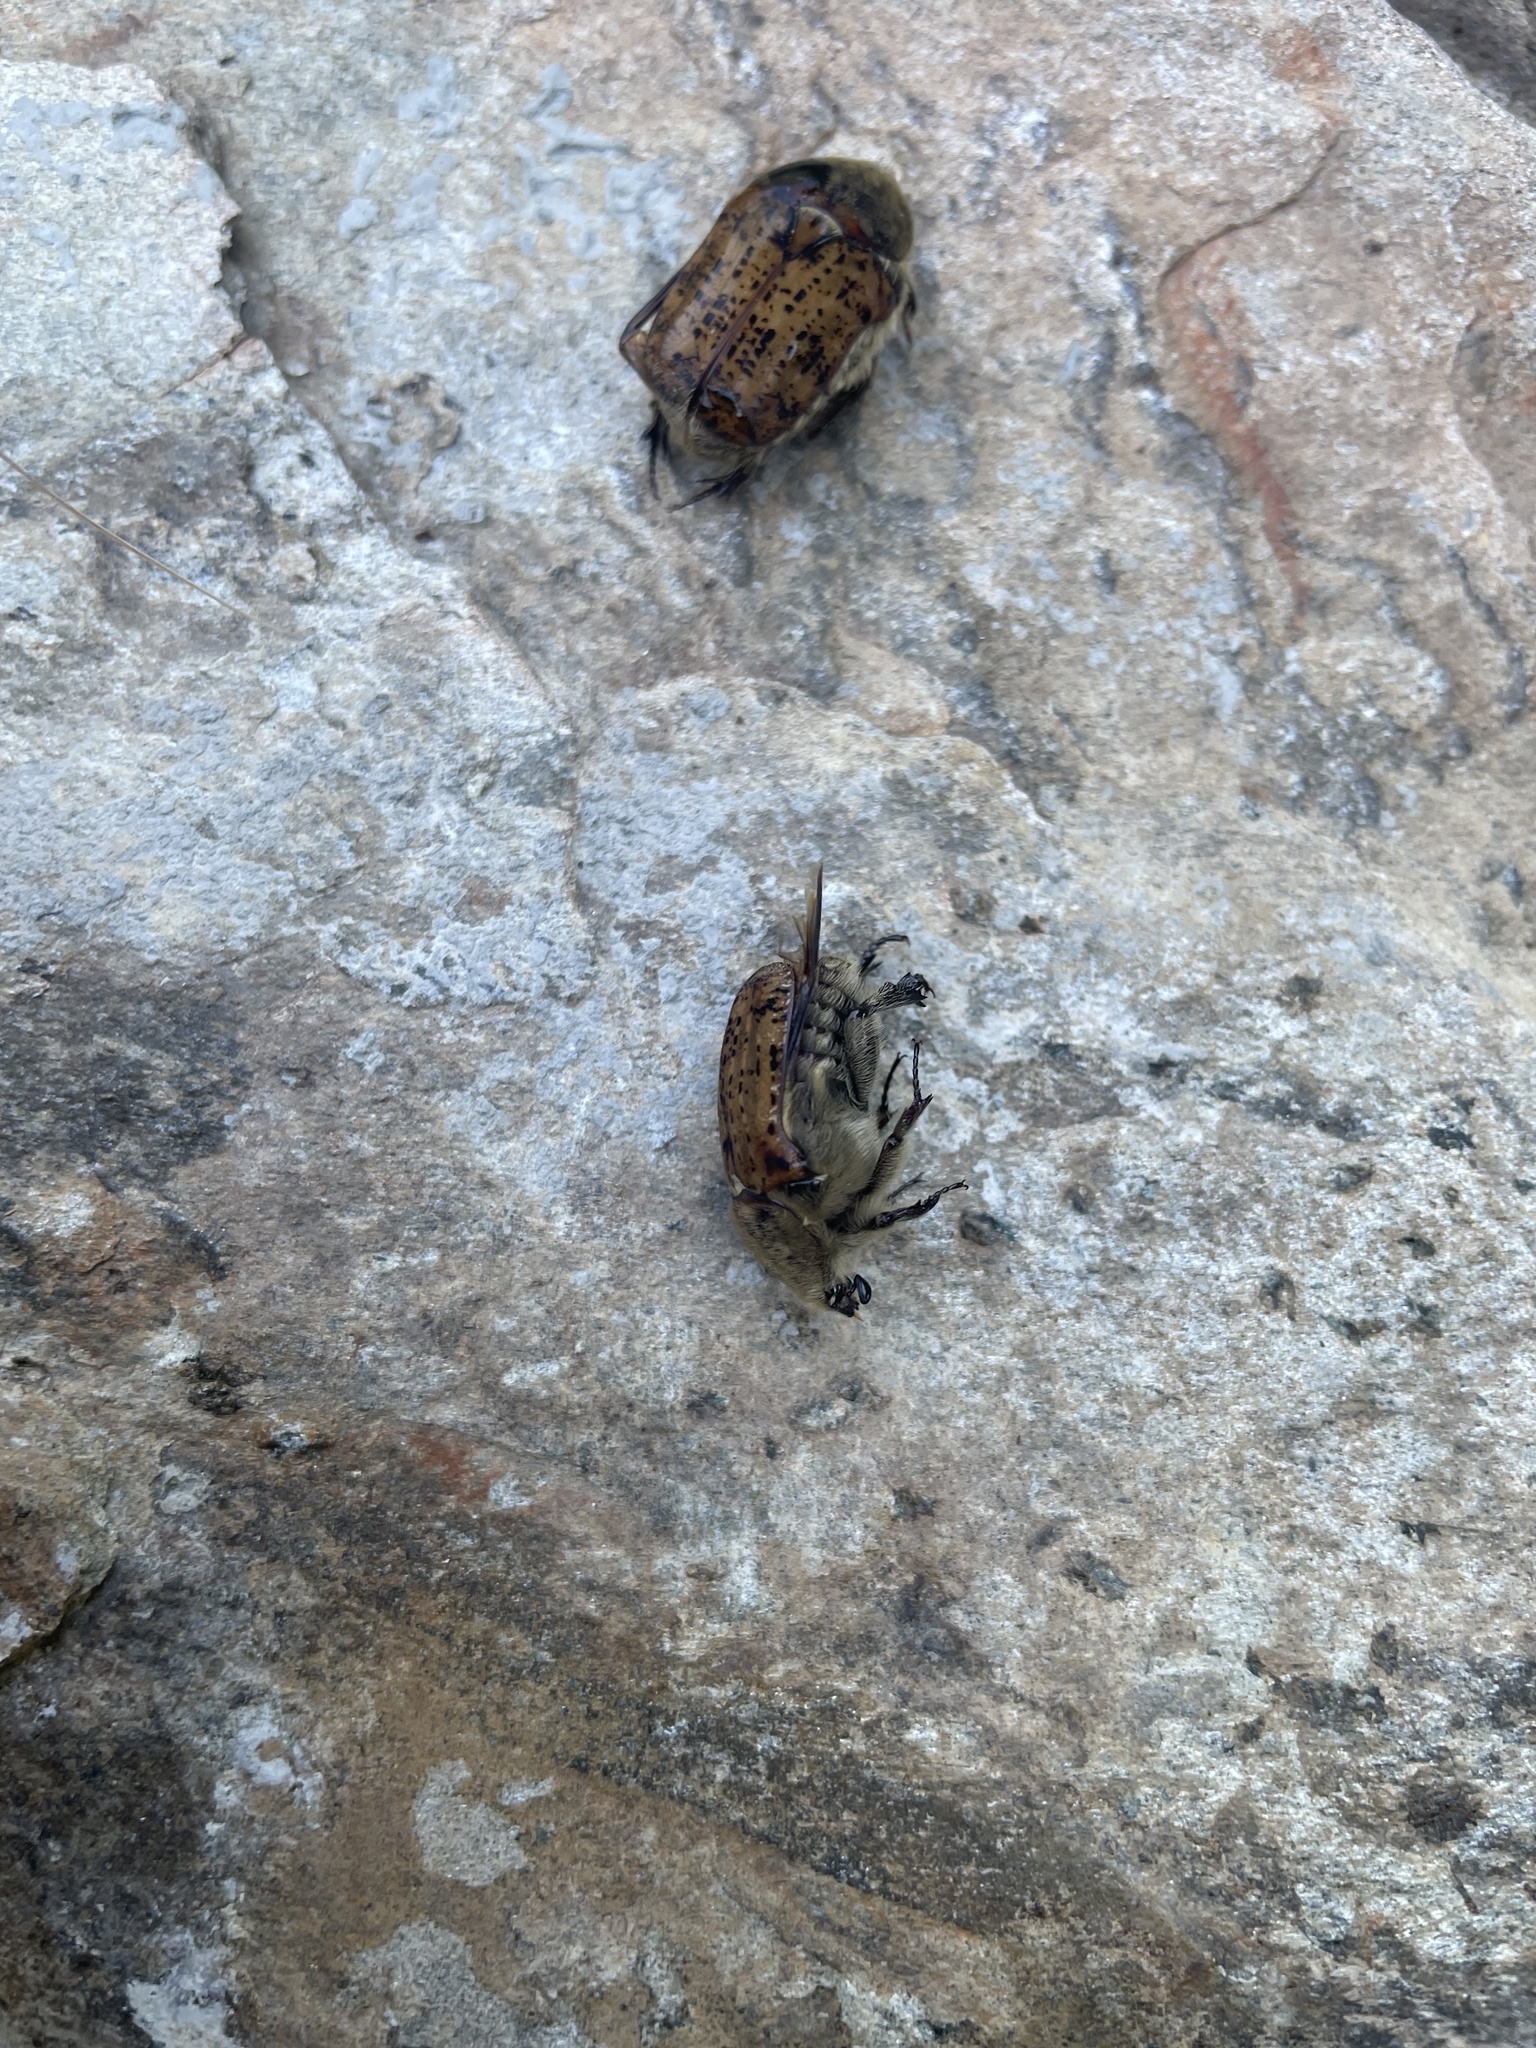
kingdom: Animalia
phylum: Arthropoda
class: Insecta
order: Coleoptera
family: Scarabaeidae
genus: Euphoria
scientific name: Euphoria inda
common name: Bumble flower beetle
